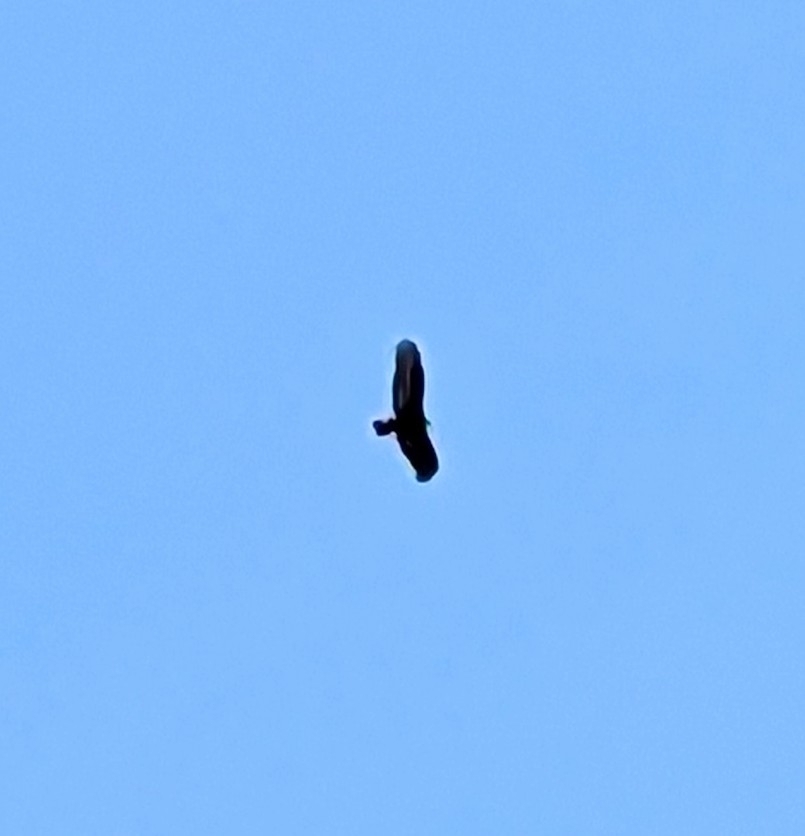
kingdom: Animalia
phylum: Chordata
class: Aves
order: Accipitriformes
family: Cathartidae
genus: Cathartes
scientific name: Cathartes aura
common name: Turkey vulture
